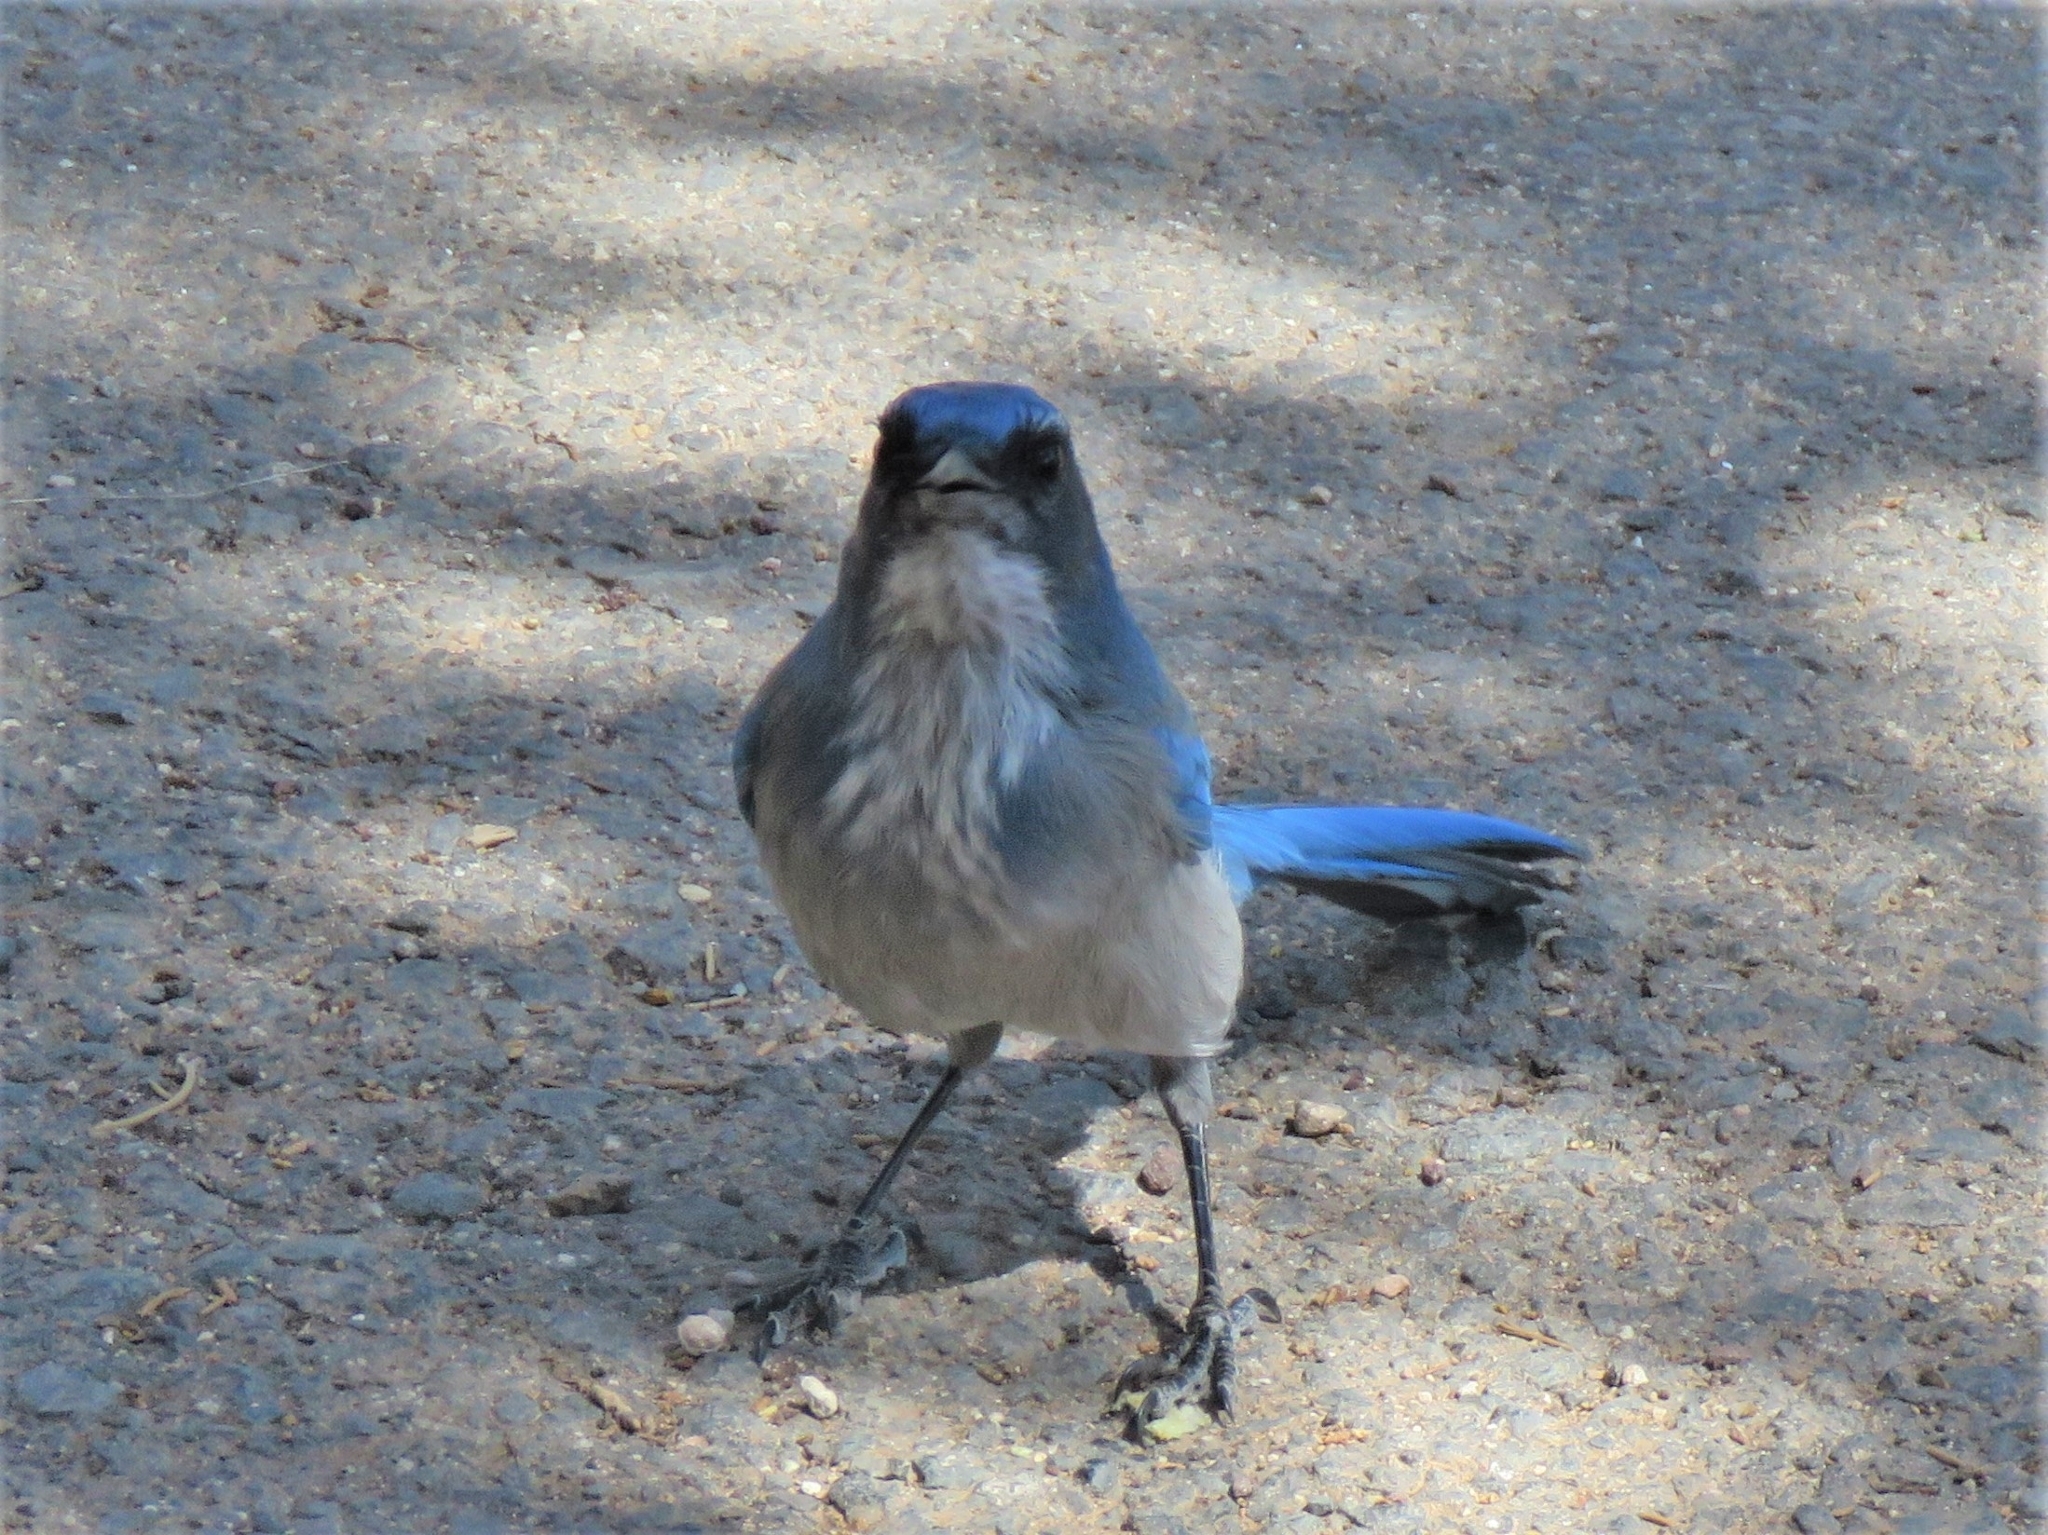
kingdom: Animalia
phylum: Chordata
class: Aves
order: Passeriformes
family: Corvidae
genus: Aphelocoma
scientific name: Aphelocoma woodhouseii
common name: Woodhouse's scrub-jay
